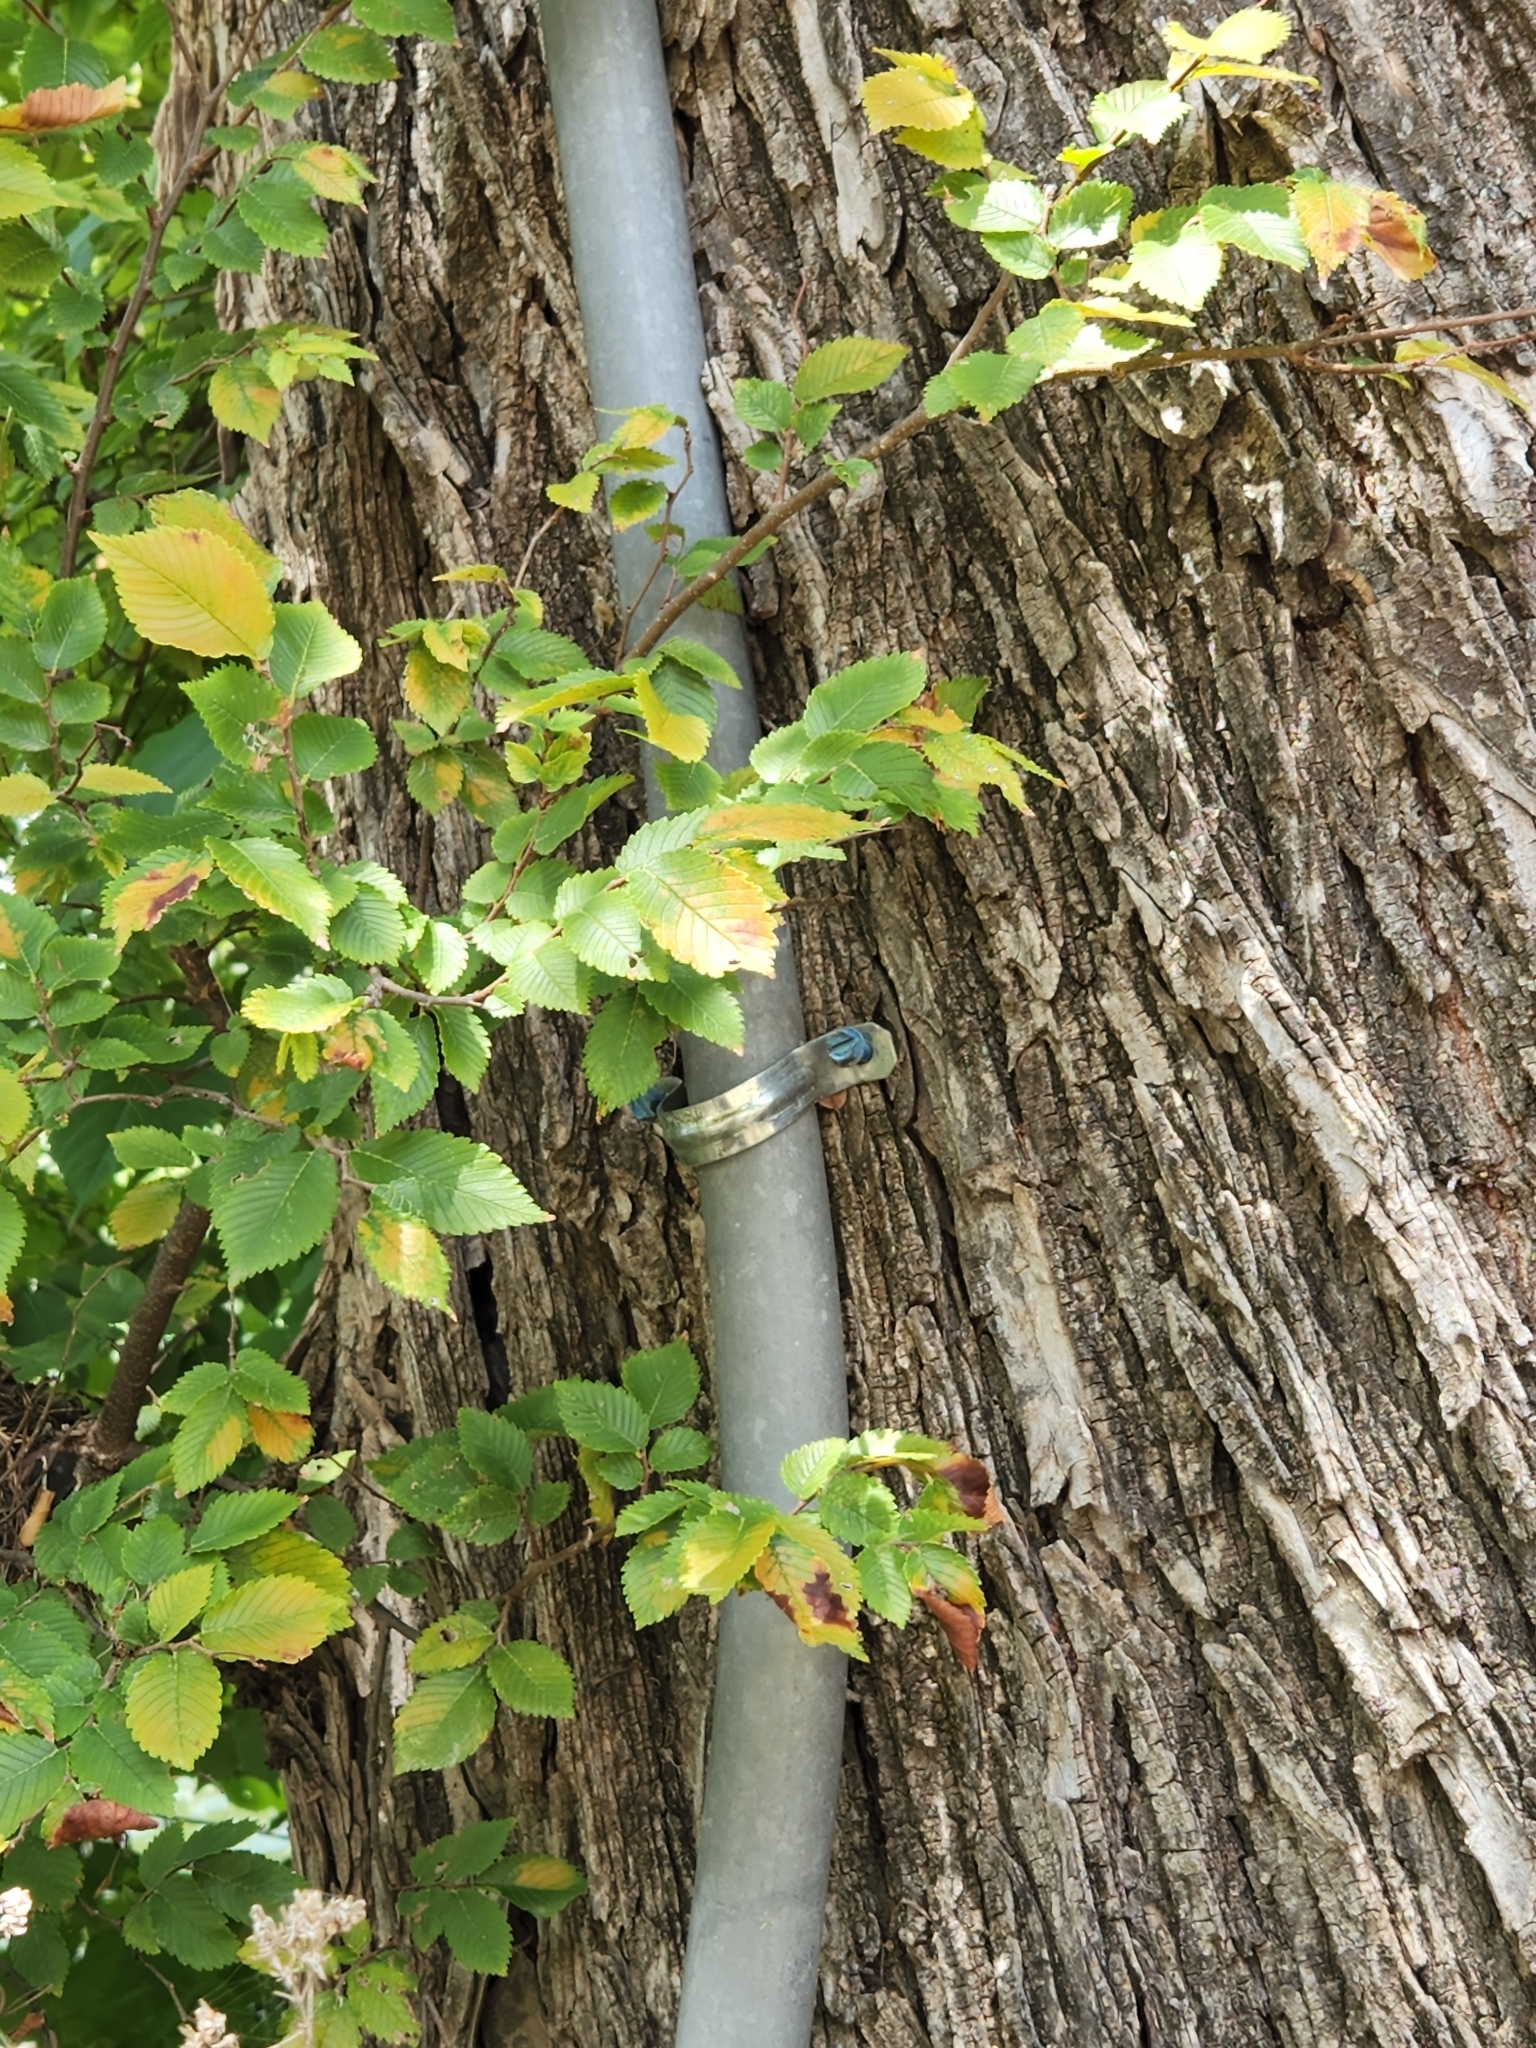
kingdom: Plantae
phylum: Tracheophyta
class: Magnoliopsida
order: Rosales
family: Ulmaceae
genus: Ulmus
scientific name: Ulmus crassifolia
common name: Basket elm
